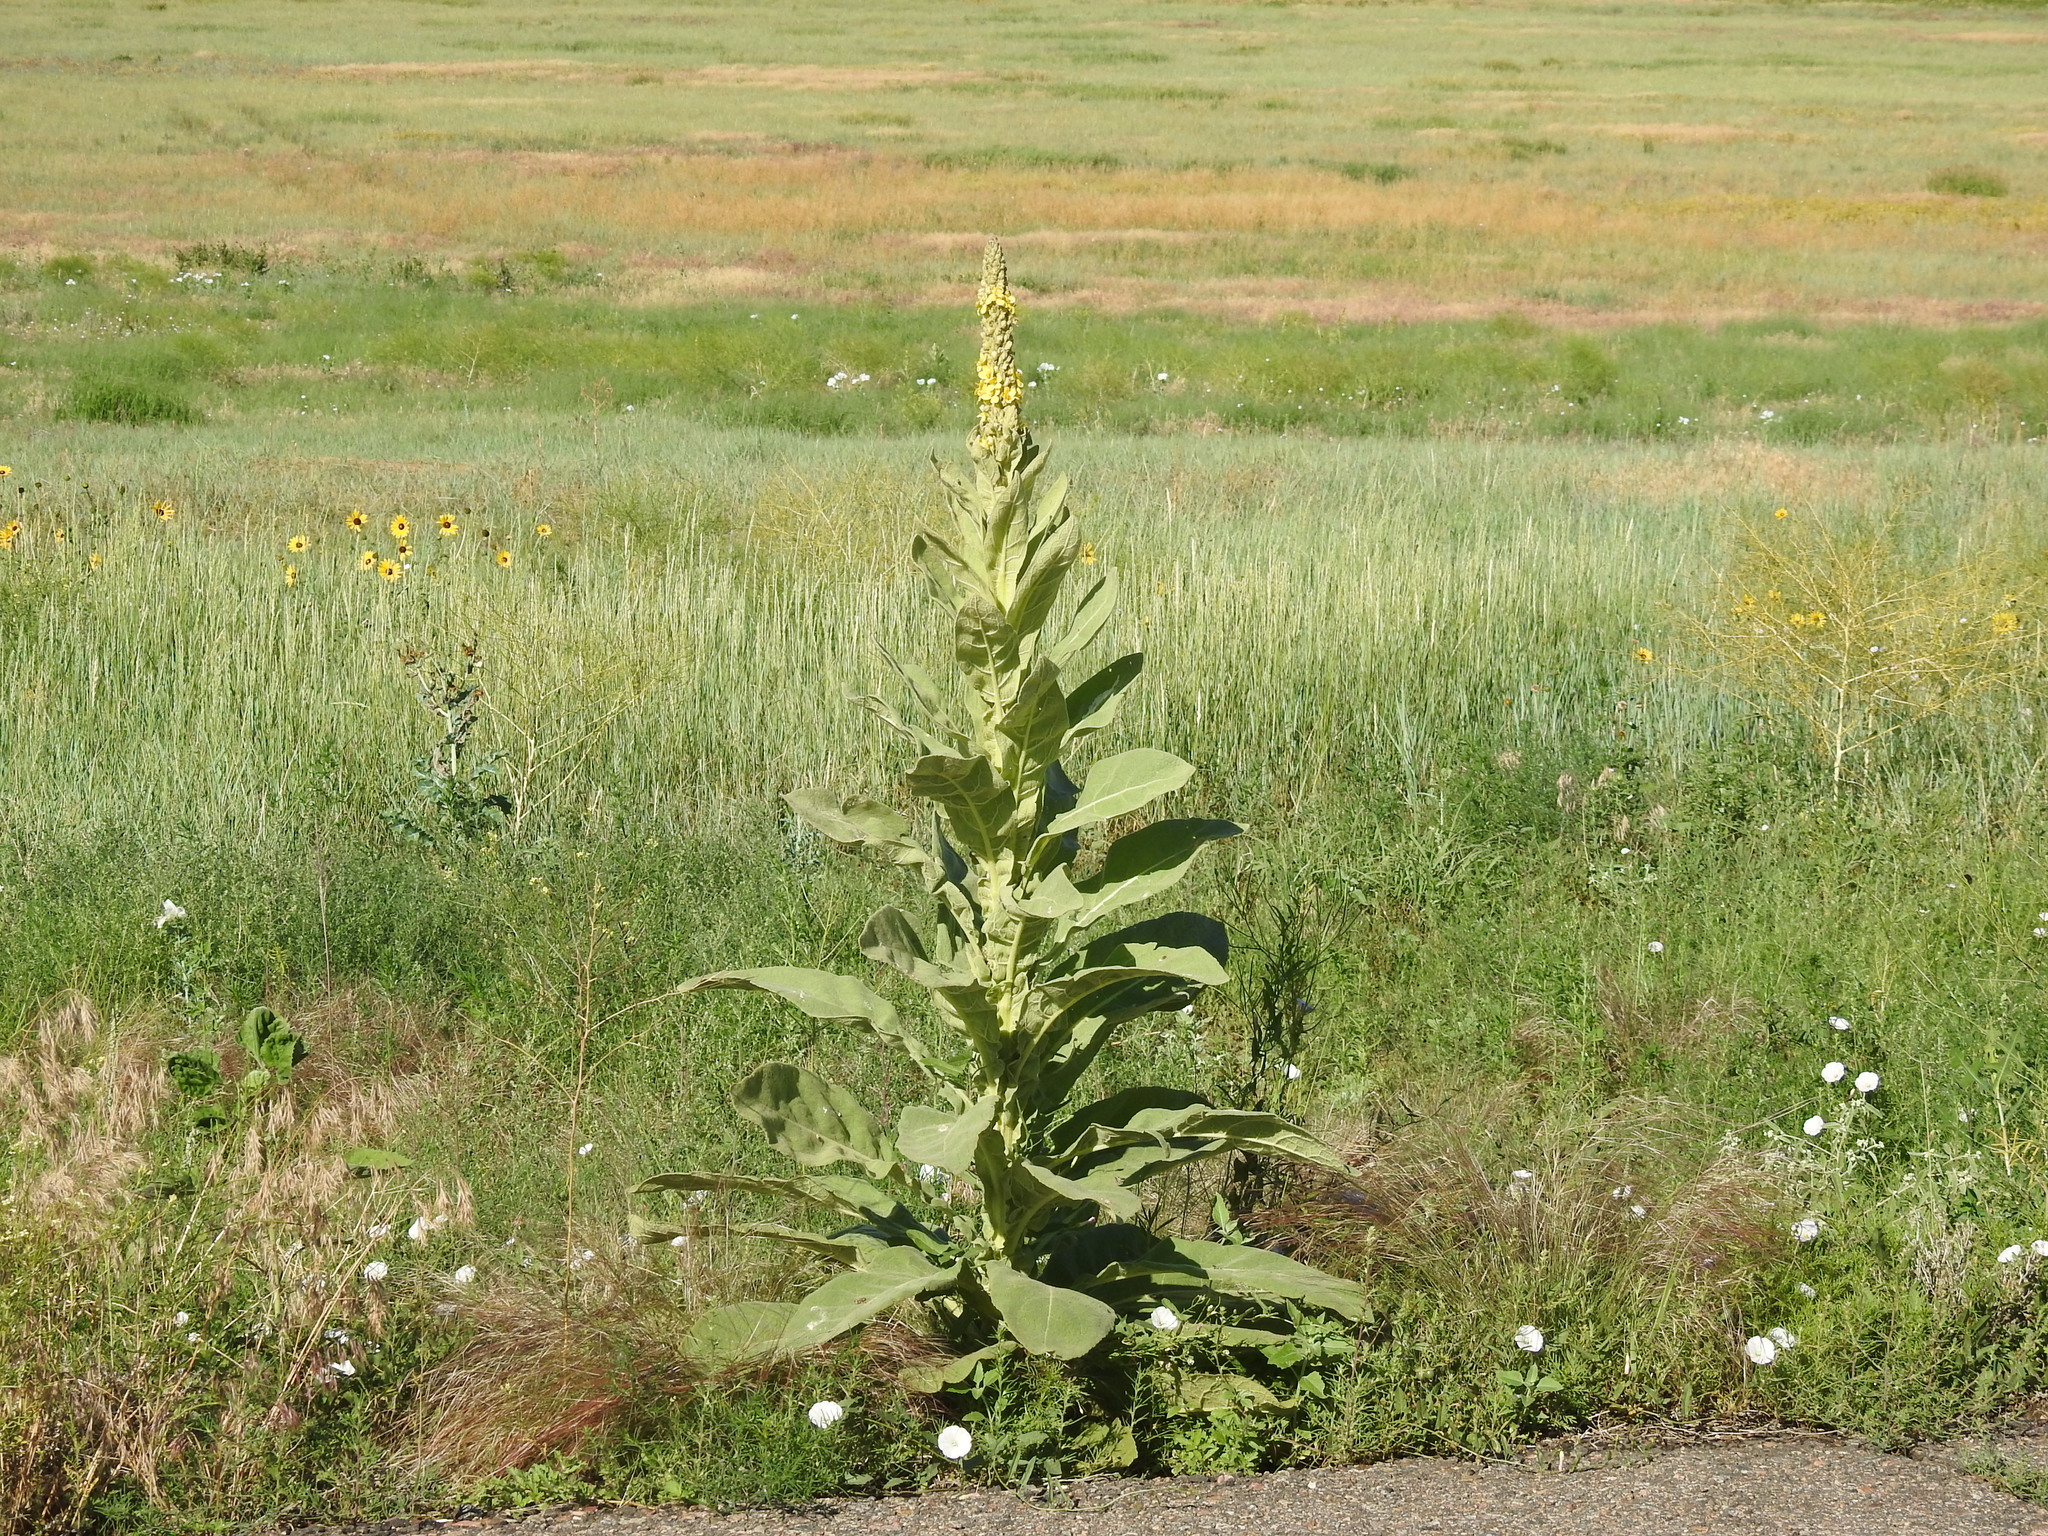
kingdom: Plantae
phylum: Tracheophyta
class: Magnoliopsida
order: Lamiales
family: Scrophulariaceae
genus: Verbascum
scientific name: Verbascum thapsus
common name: Common mullein
